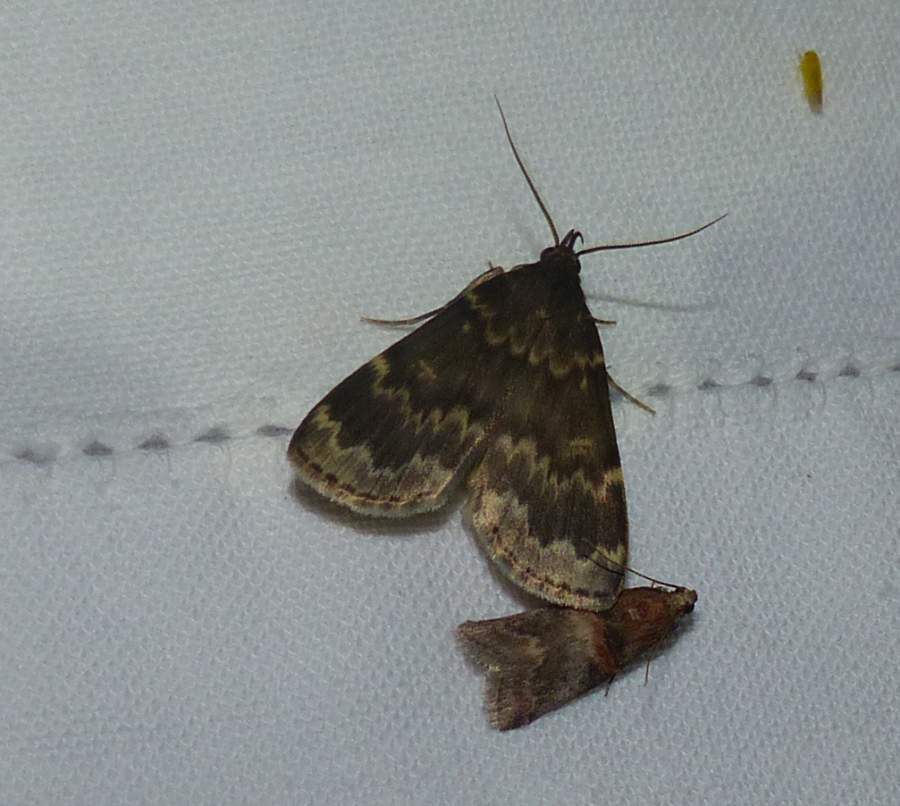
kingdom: Animalia
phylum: Arthropoda
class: Insecta
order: Lepidoptera
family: Erebidae
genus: Idia
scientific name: Idia lubricalis
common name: Twin-striped tabby
